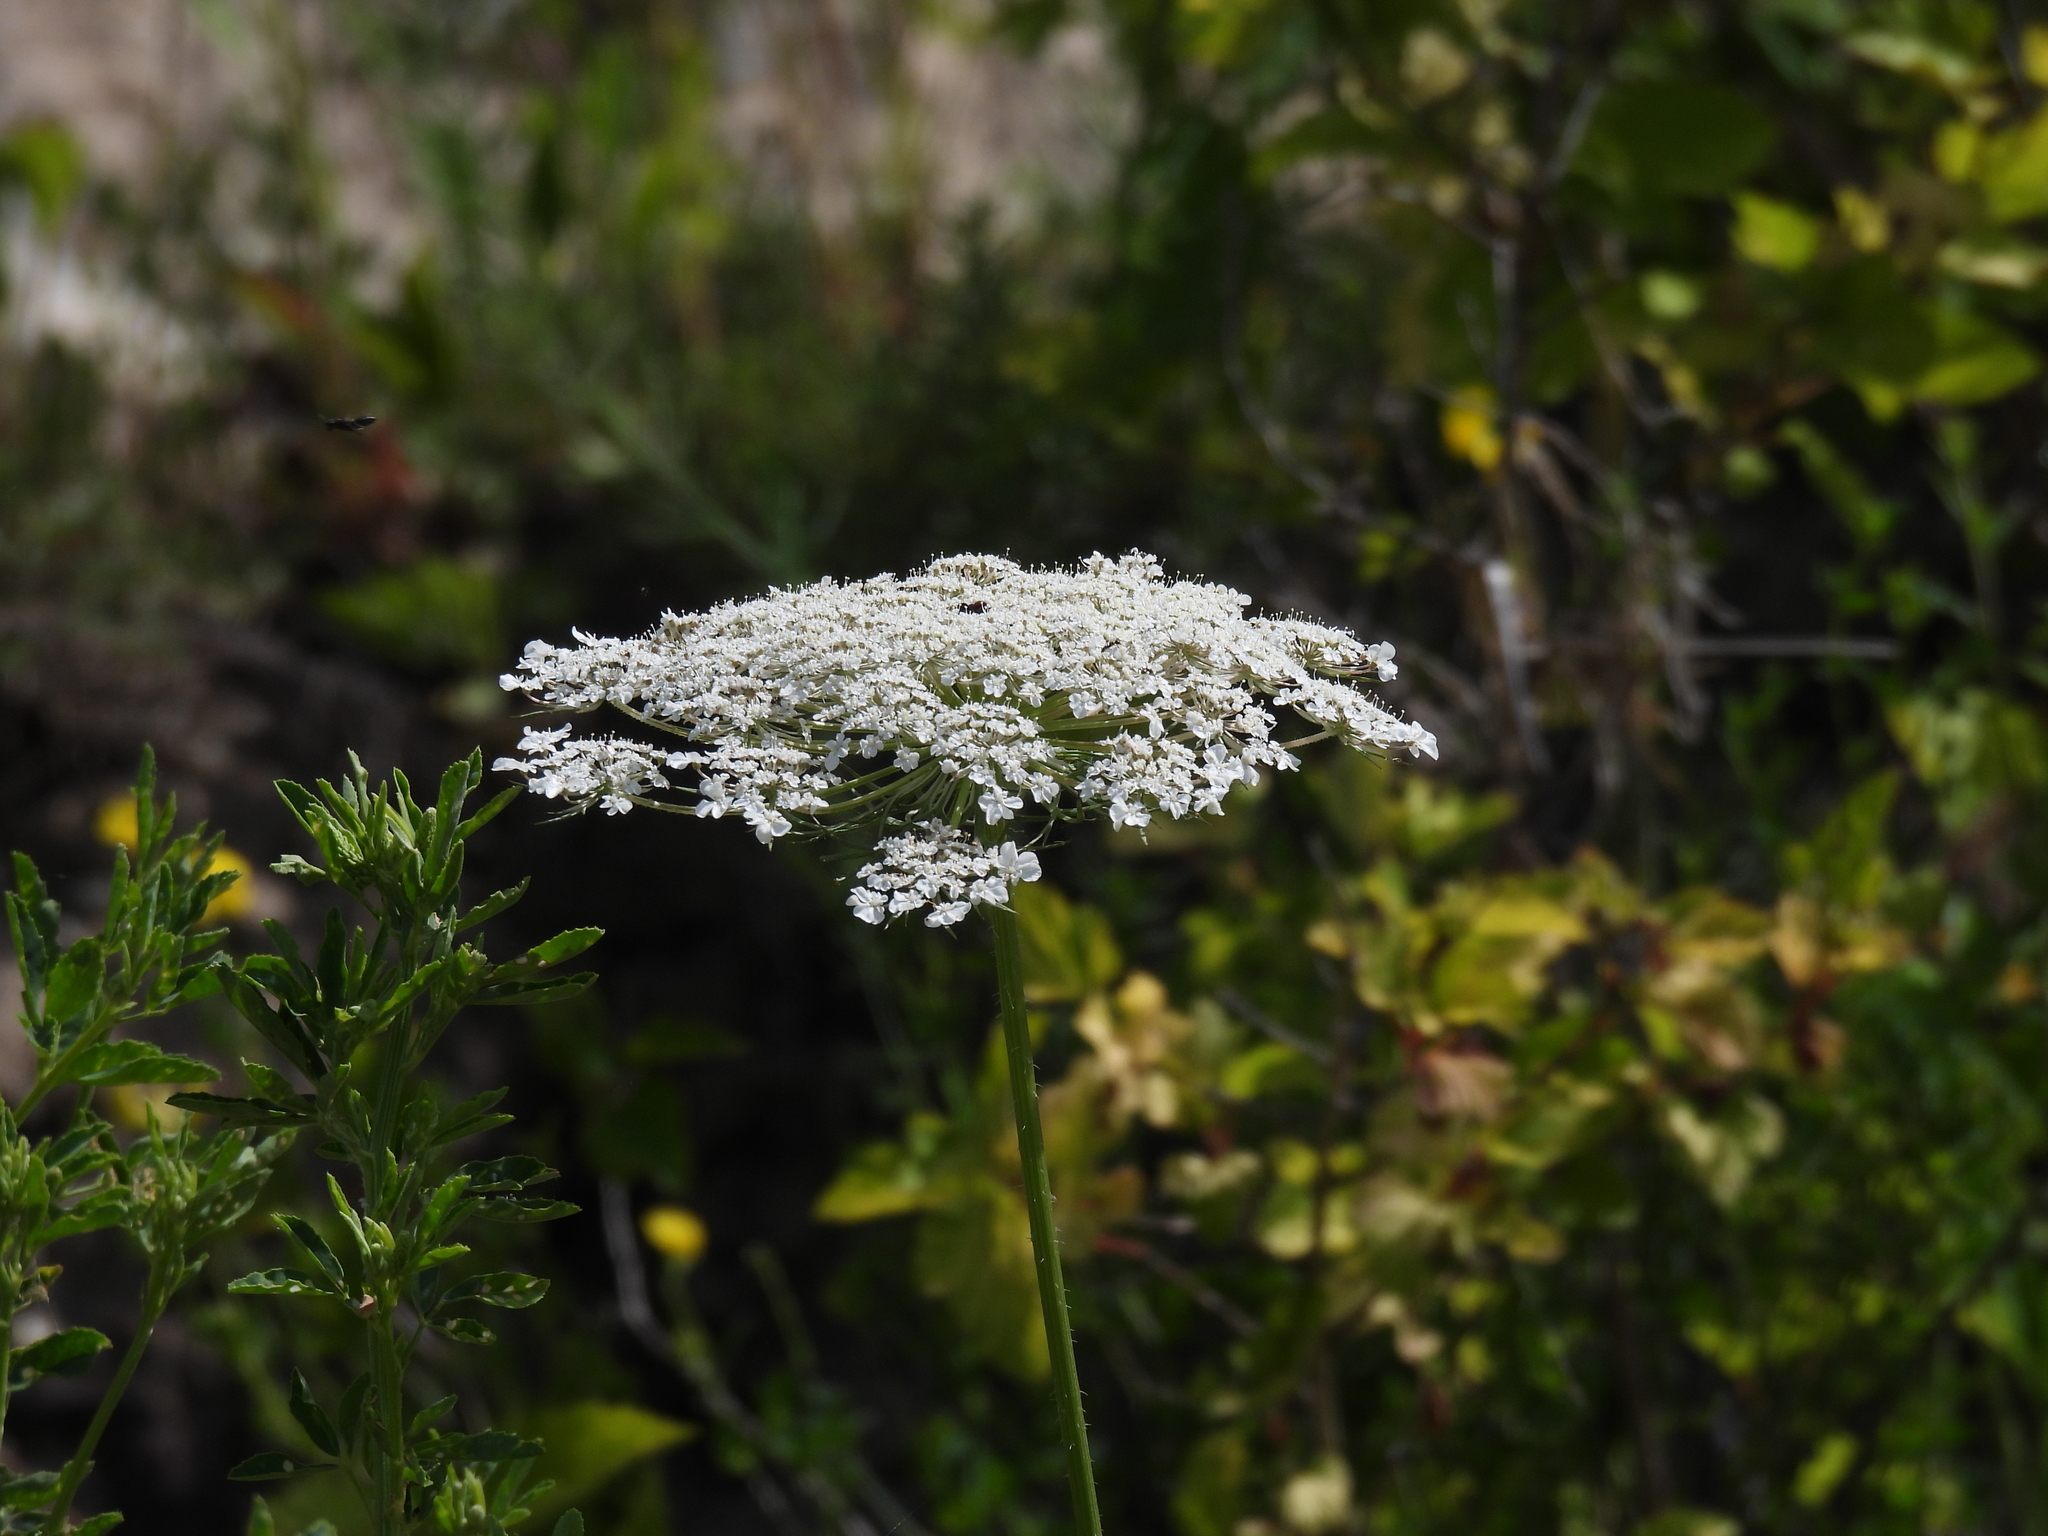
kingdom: Plantae
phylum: Tracheophyta
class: Magnoliopsida
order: Apiales
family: Apiaceae
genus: Daucus
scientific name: Daucus carota
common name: Wild carrot
